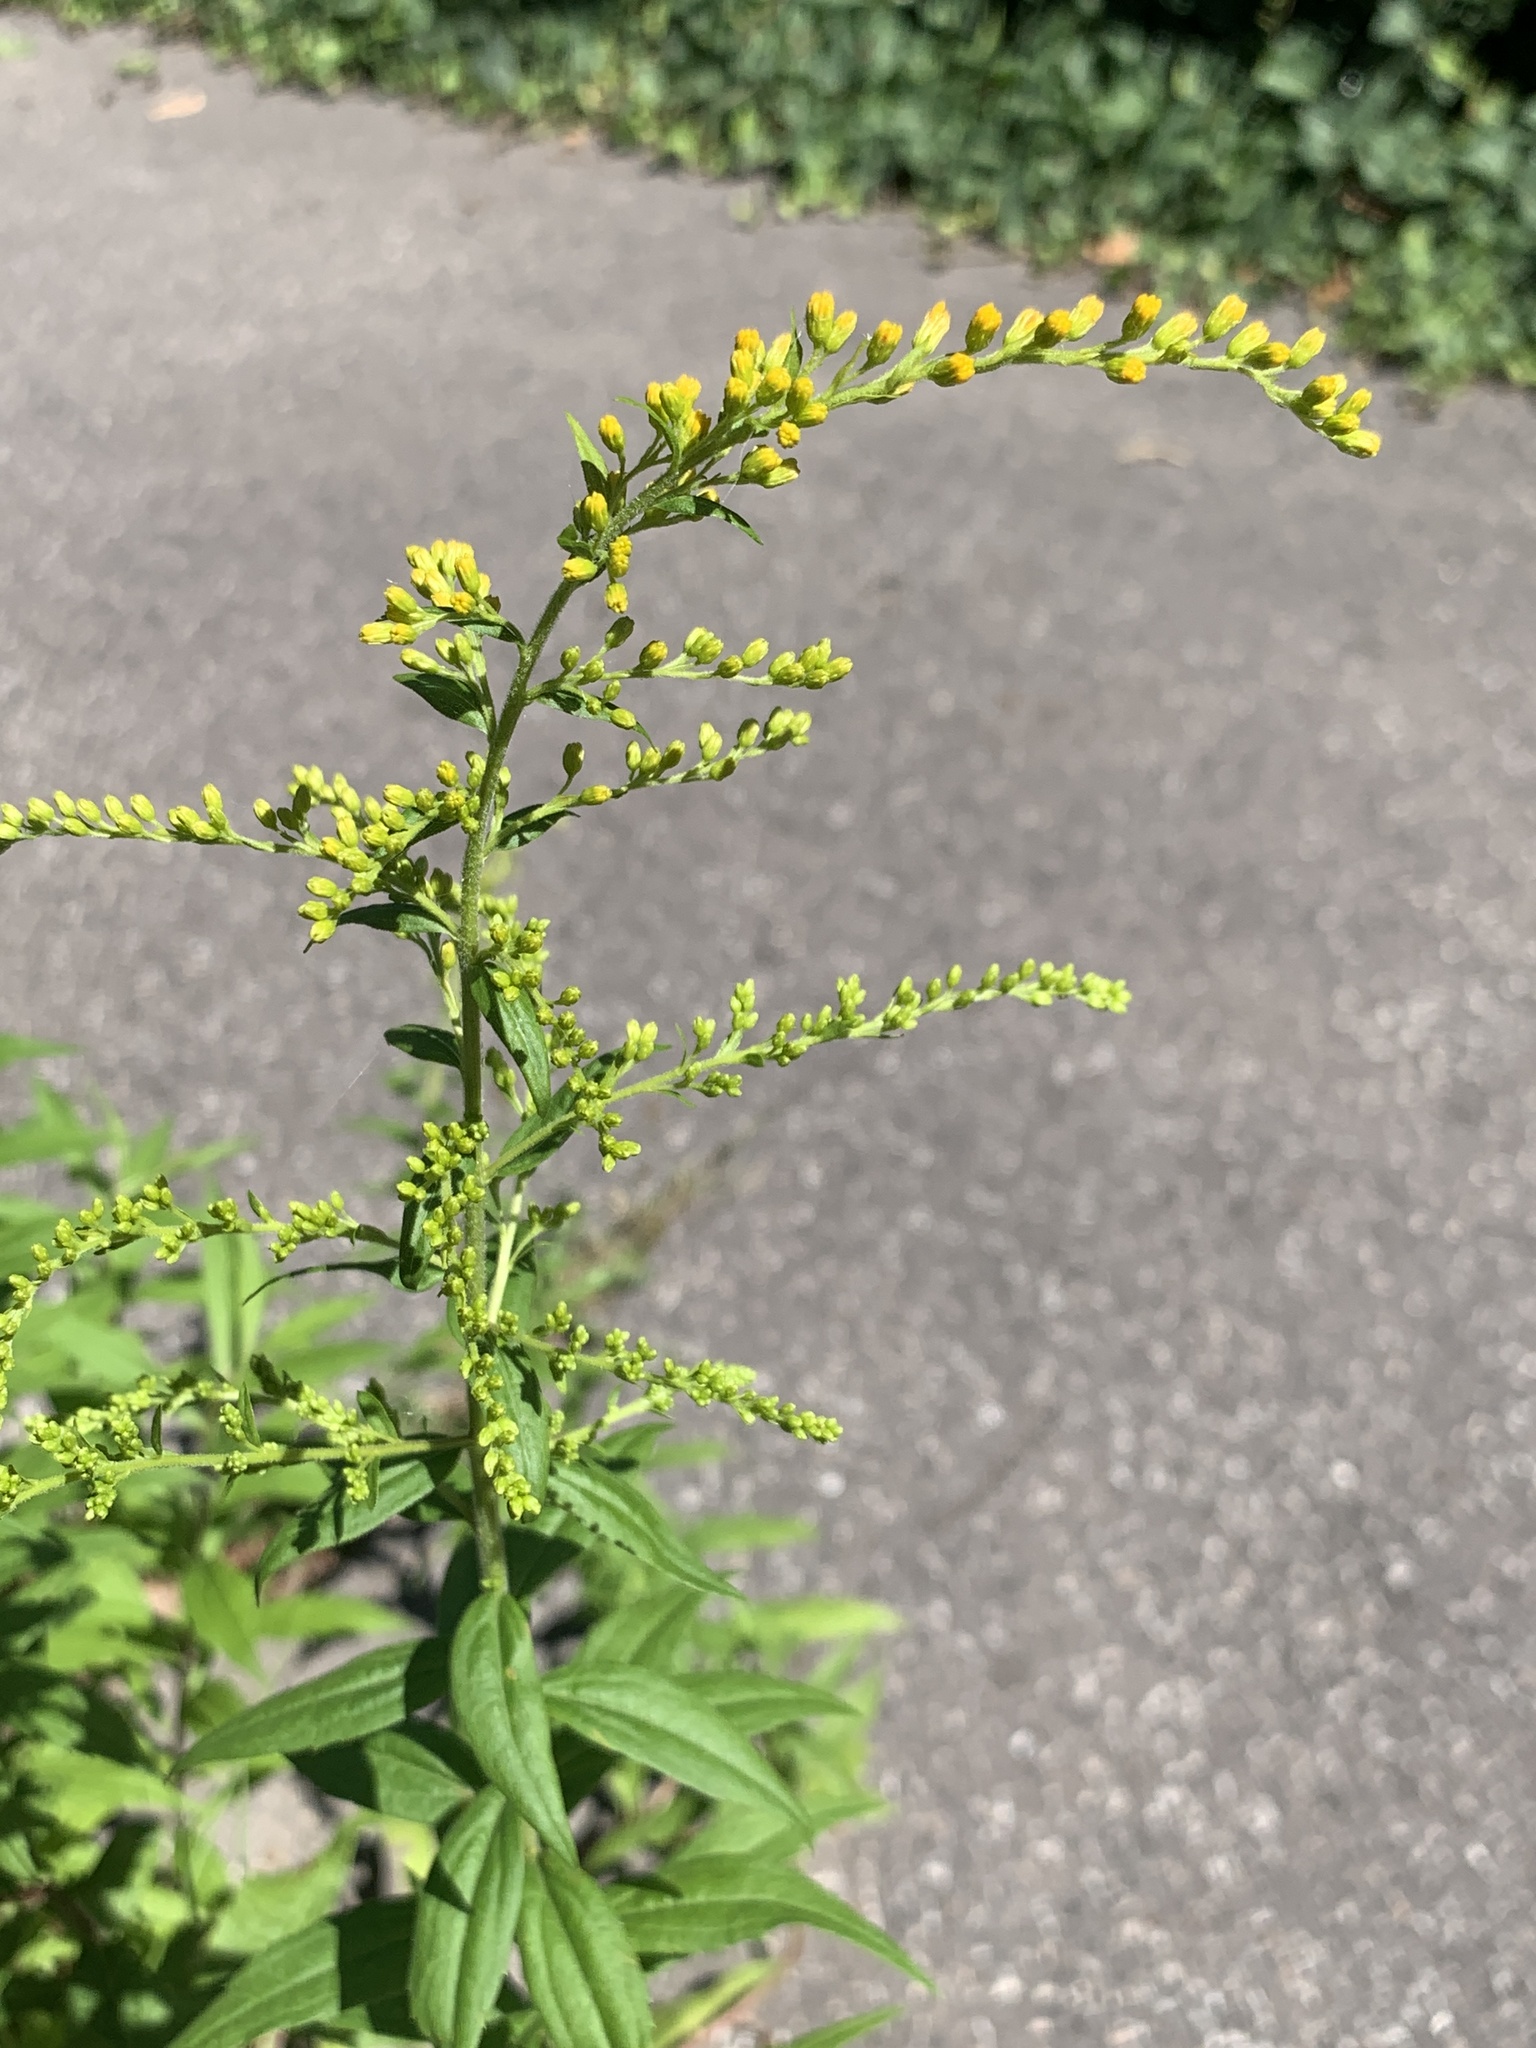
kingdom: Plantae
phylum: Tracheophyta
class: Magnoliopsida
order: Asterales
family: Asteraceae
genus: Solidago
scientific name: Solidago canadensis
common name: Canada goldenrod
